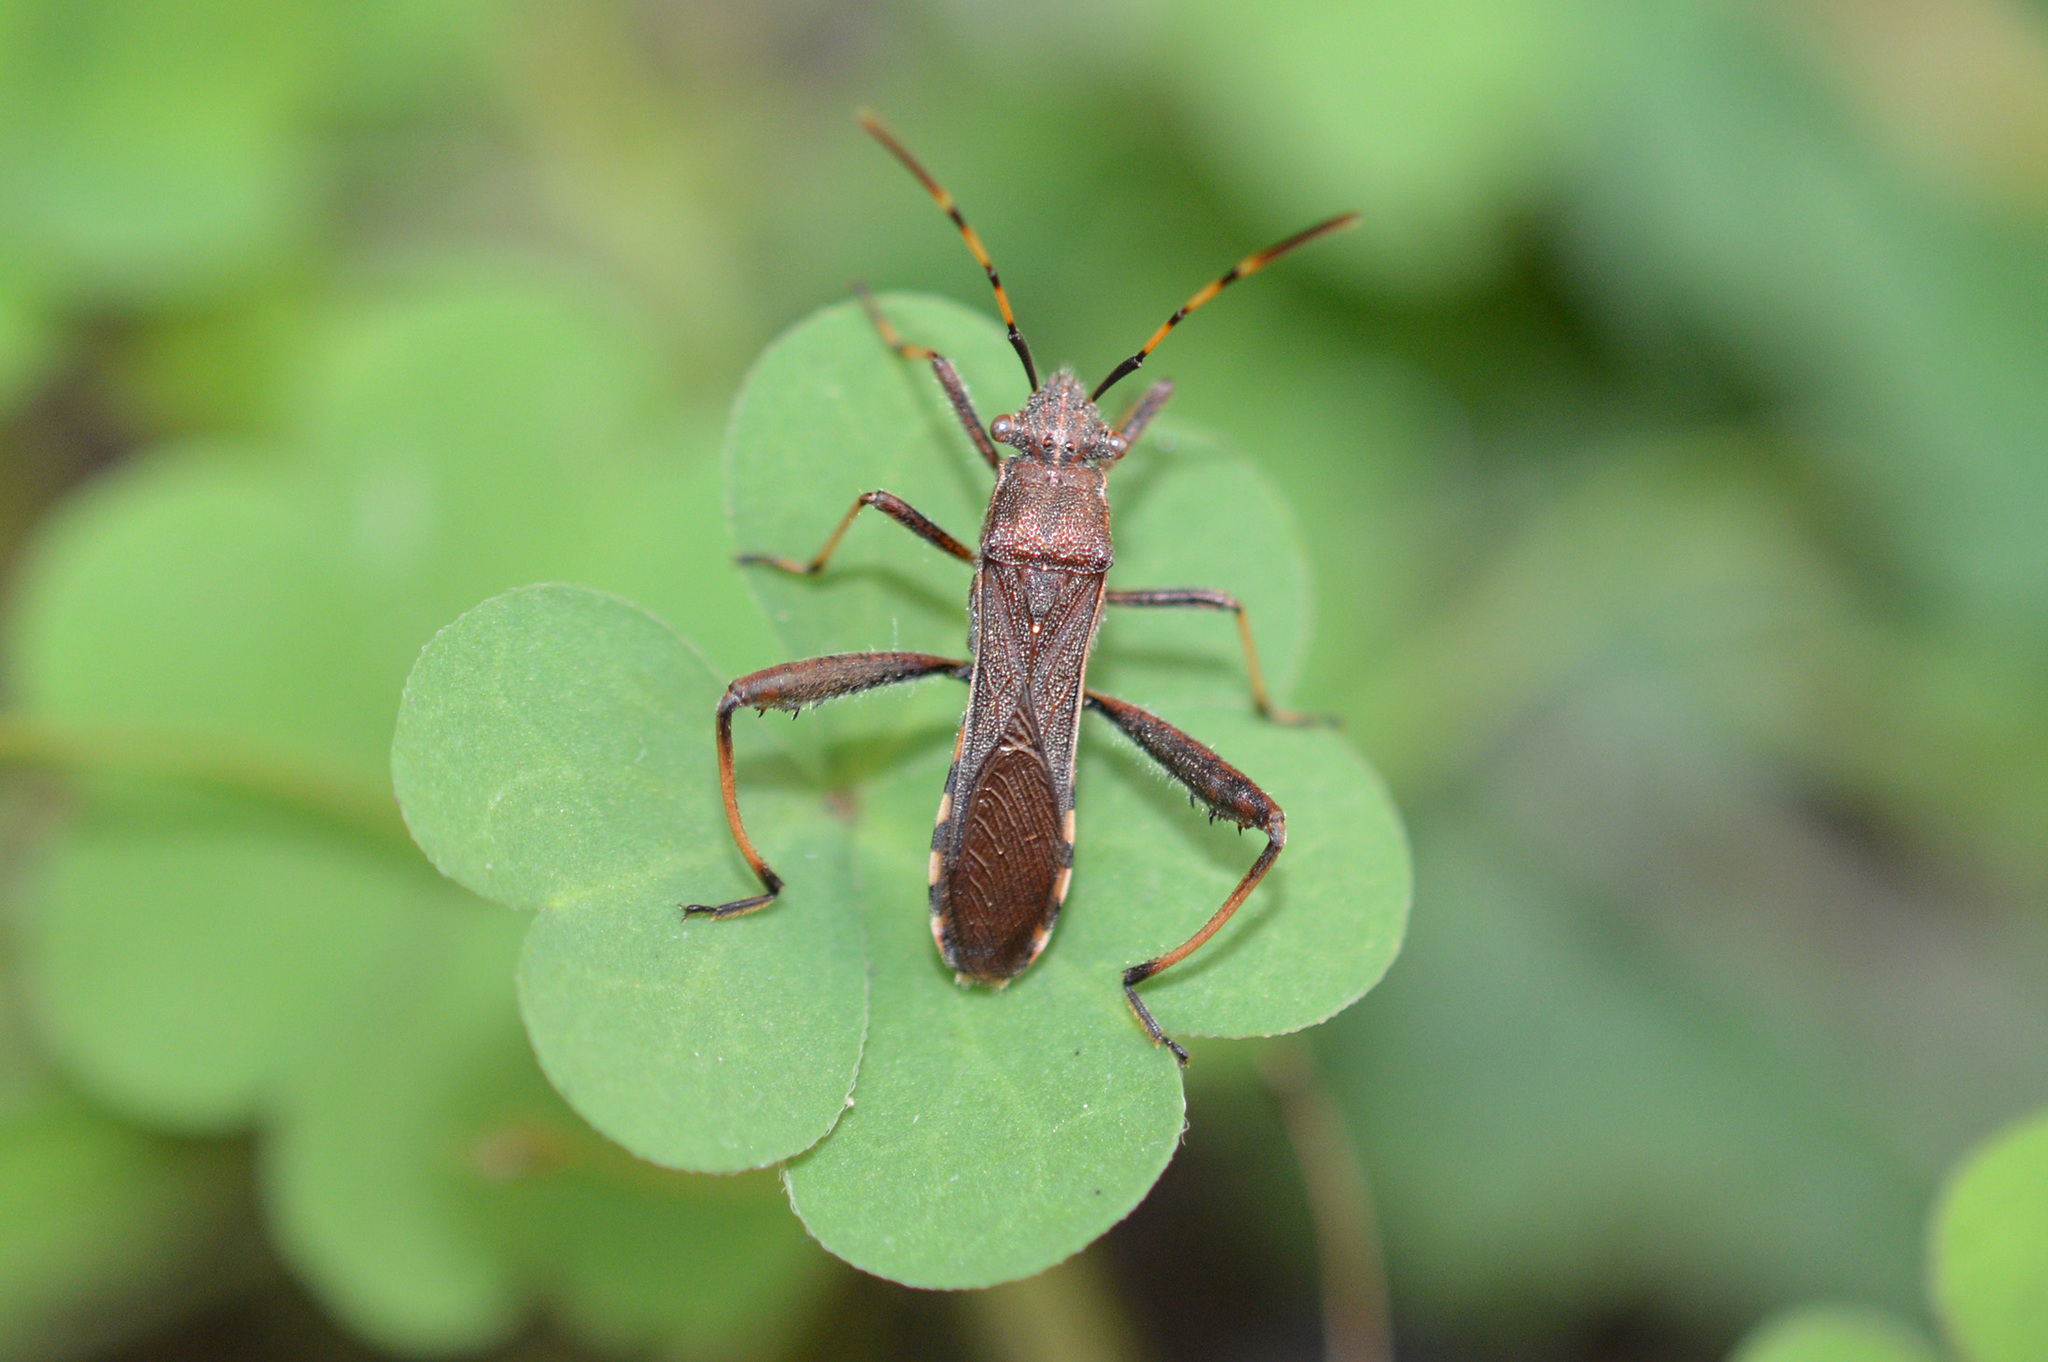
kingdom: Animalia
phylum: Arthropoda
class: Insecta
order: Hemiptera
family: Alydidae
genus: Camptopus
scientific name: Camptopus lateralis
